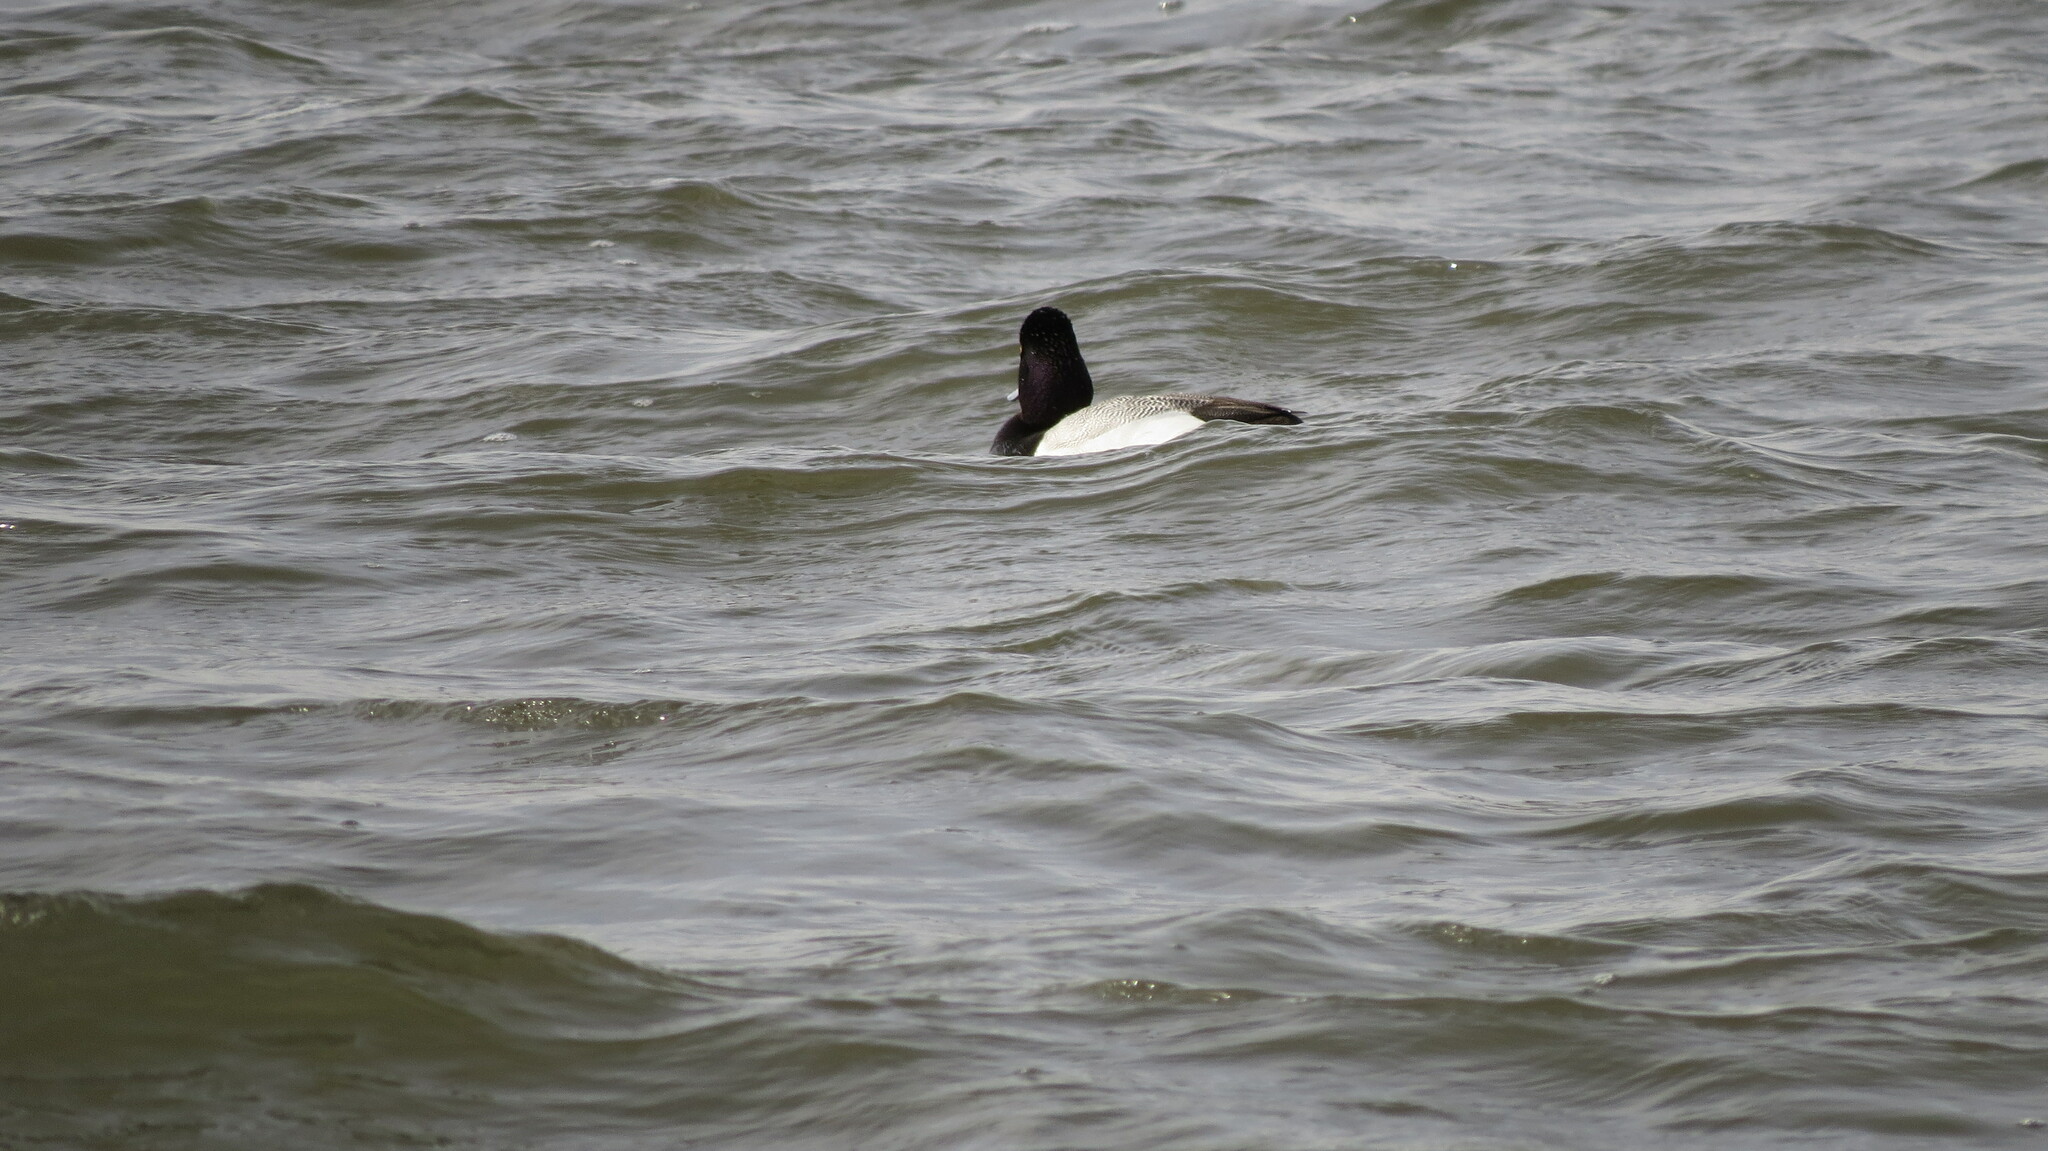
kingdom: Animalia
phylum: Chordata
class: Aves
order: Anseriformes
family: Anatidae
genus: Aythya
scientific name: Aythya affinis
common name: Lesser scaup
